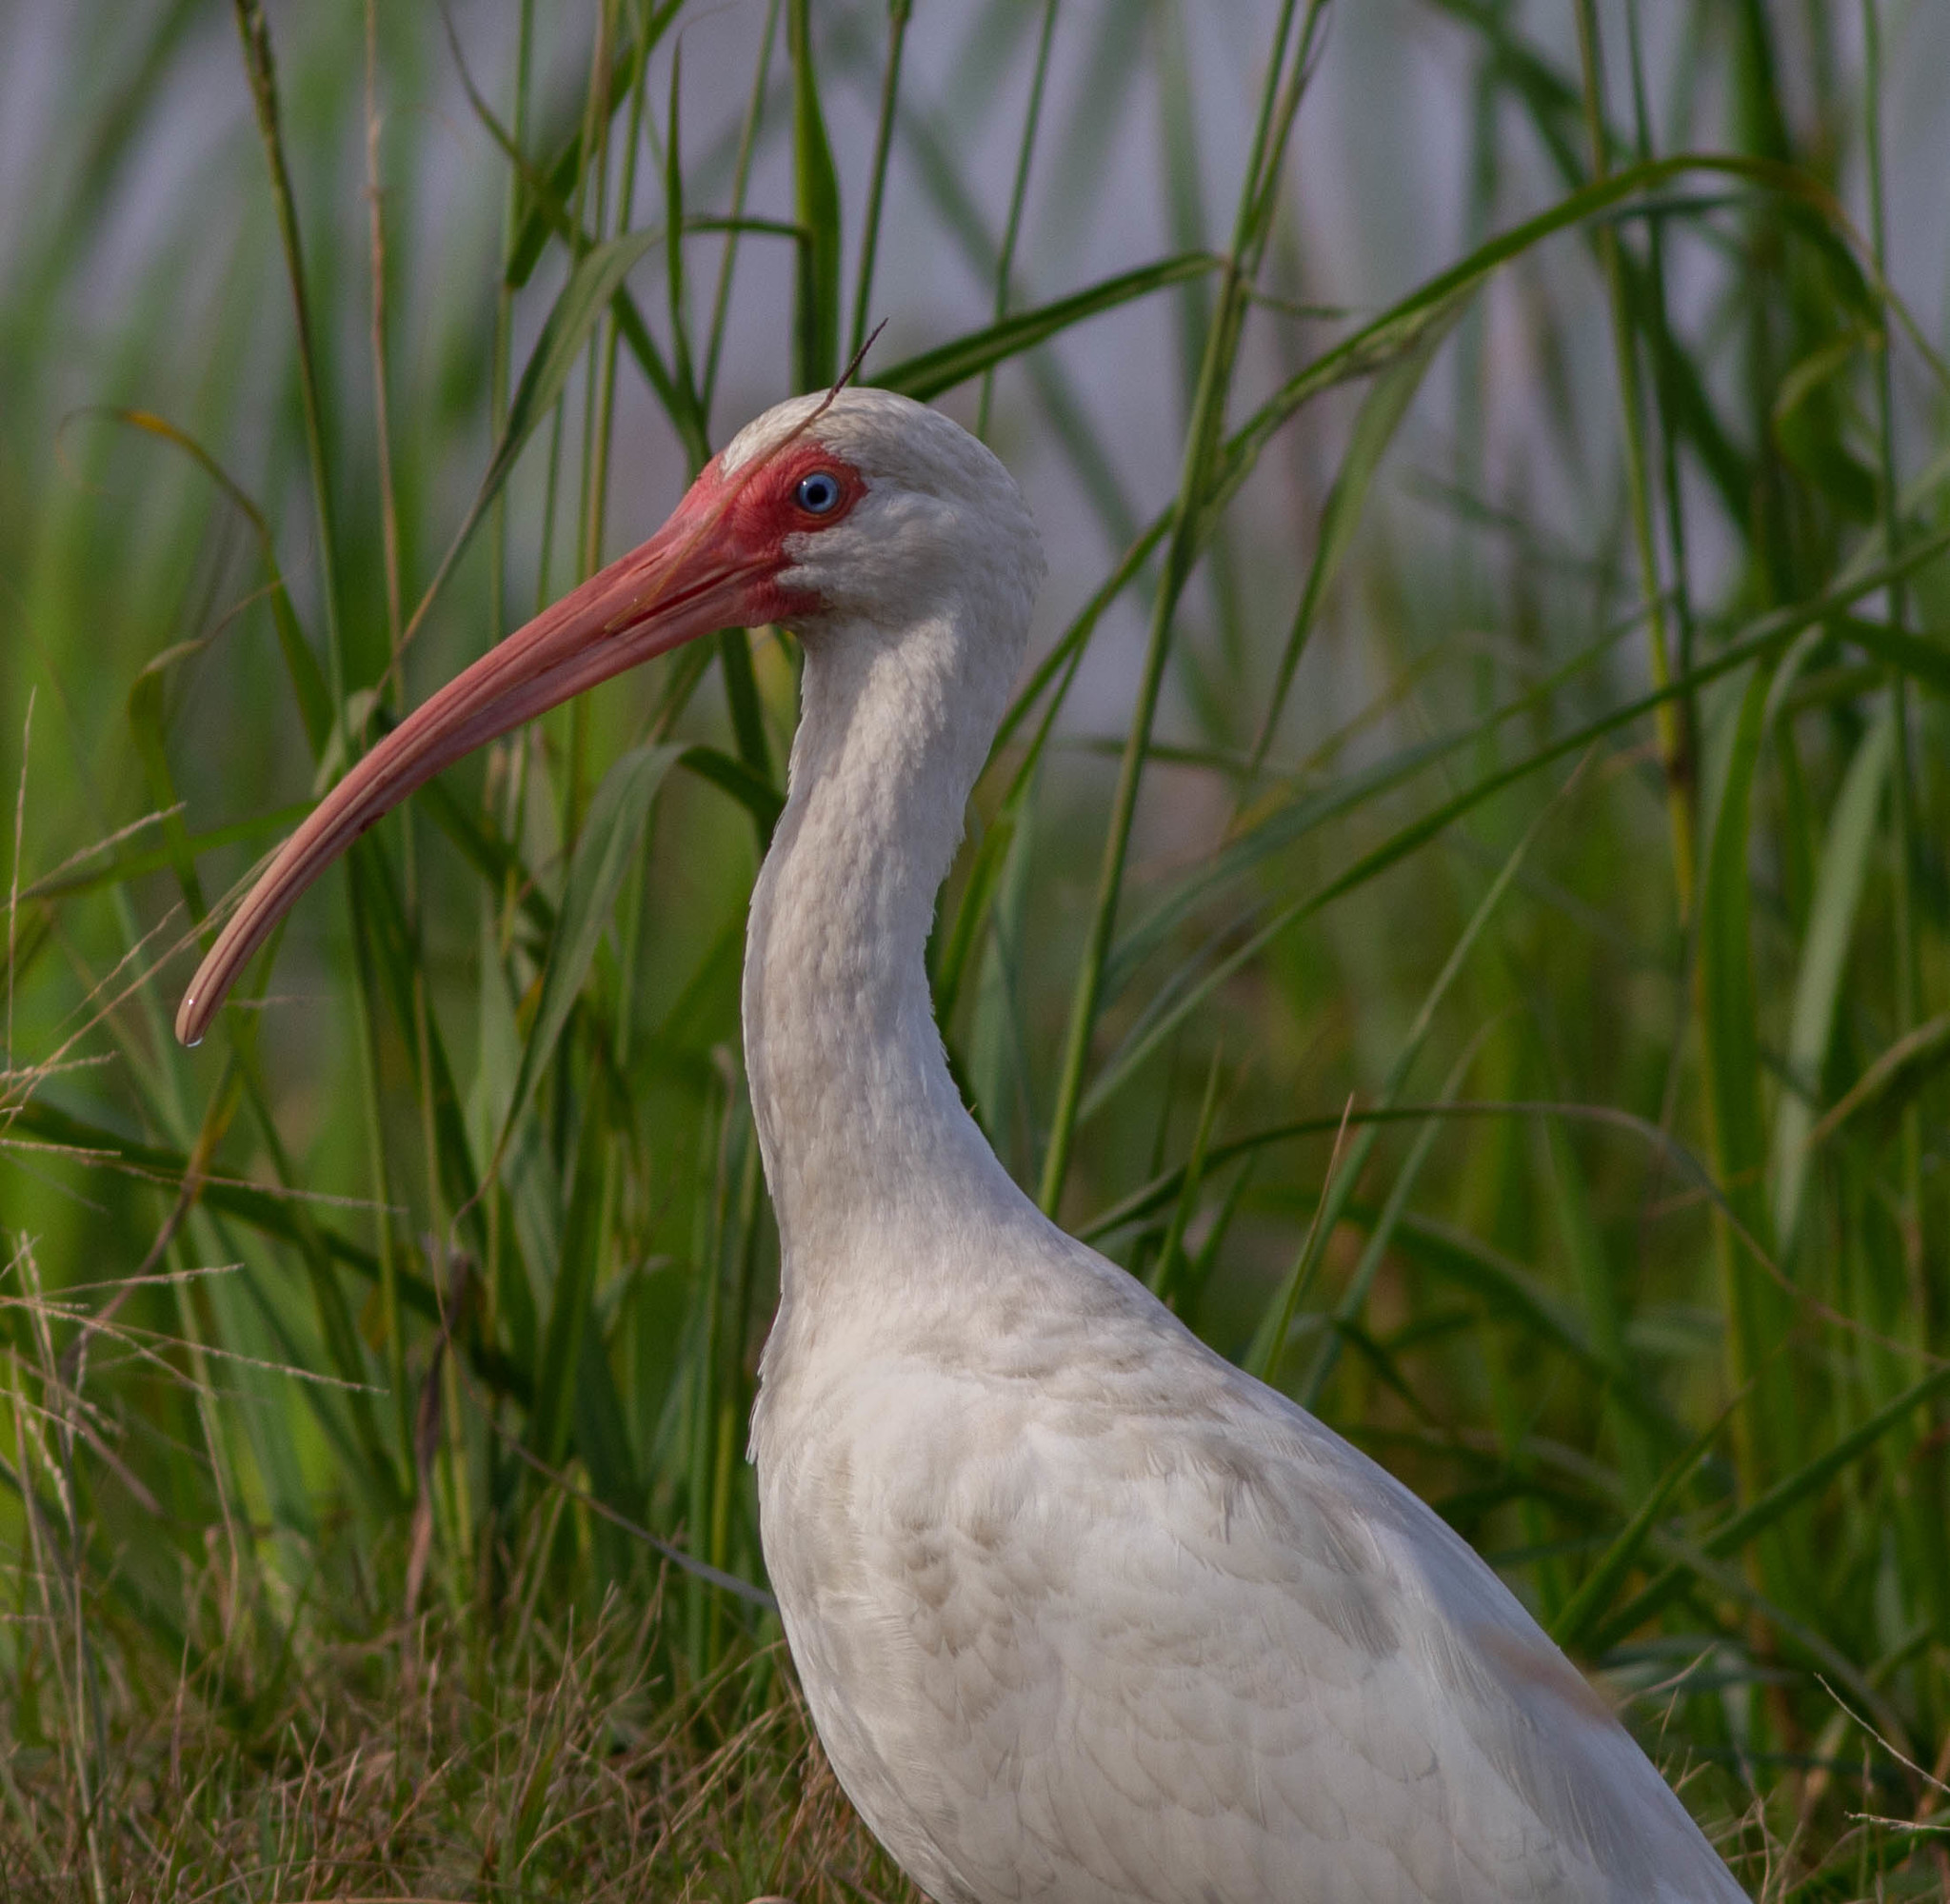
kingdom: Animalia
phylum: Chordata
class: Aves
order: Pelecaniformes
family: Threskiornithidae
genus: Eudocimus
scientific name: Eudocimus albus
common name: White ibis
